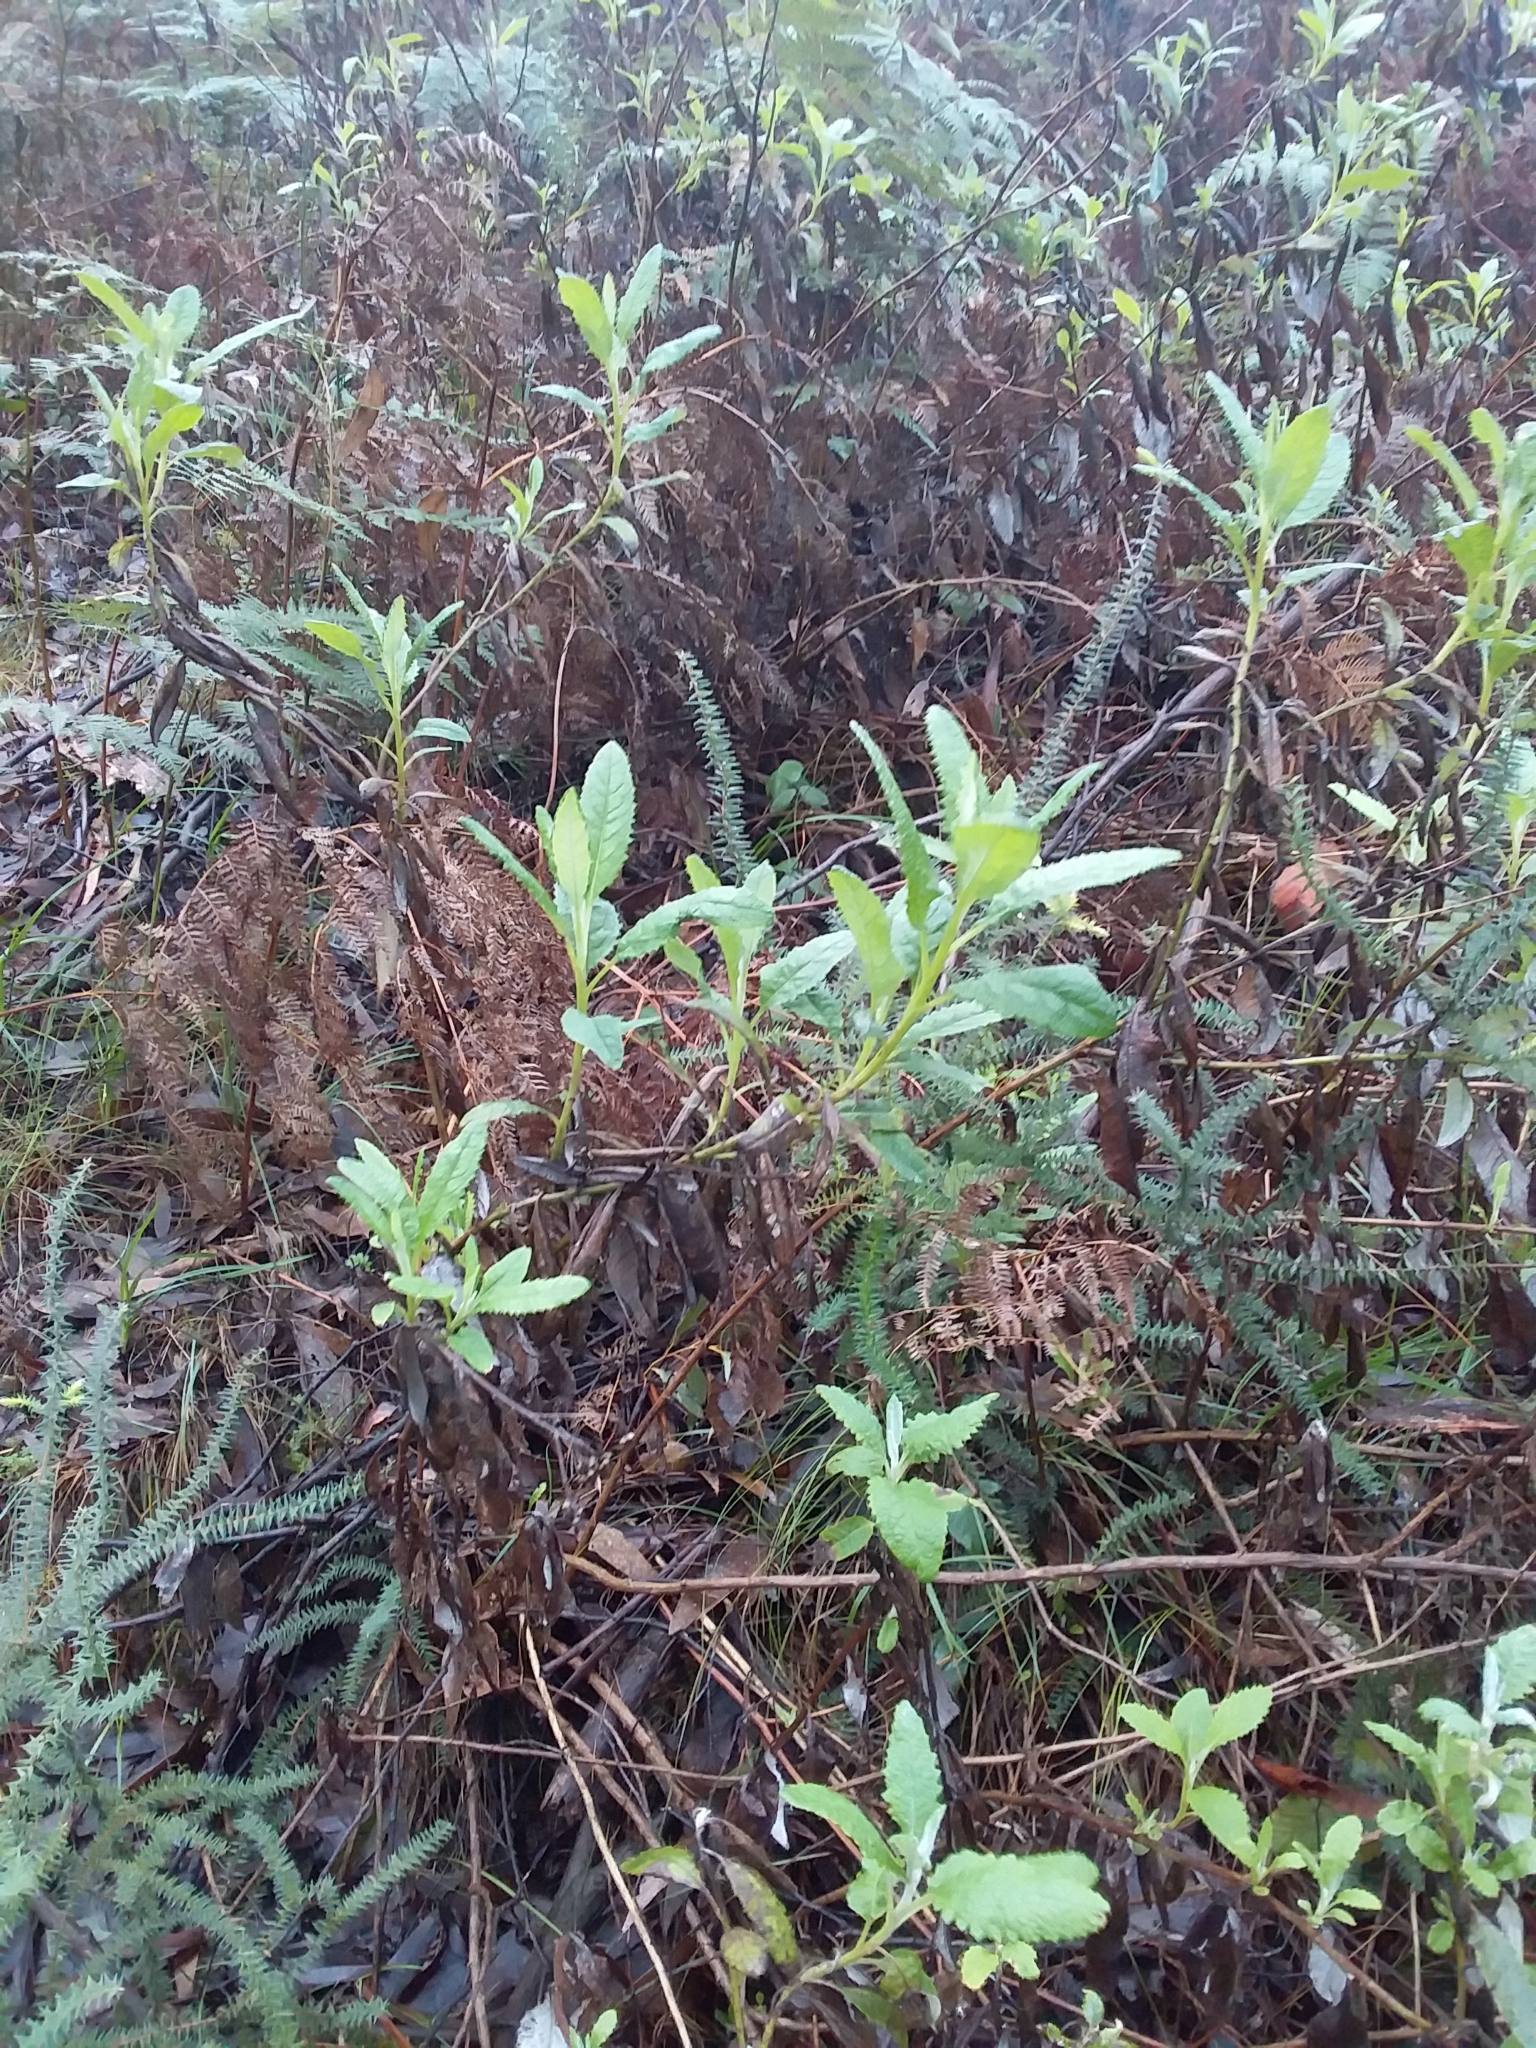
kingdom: Plantae
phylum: Tracheophyta
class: Magnoliopsida
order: Asterales
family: Asteraceae
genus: Senecio
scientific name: Senecio hypoleucus
